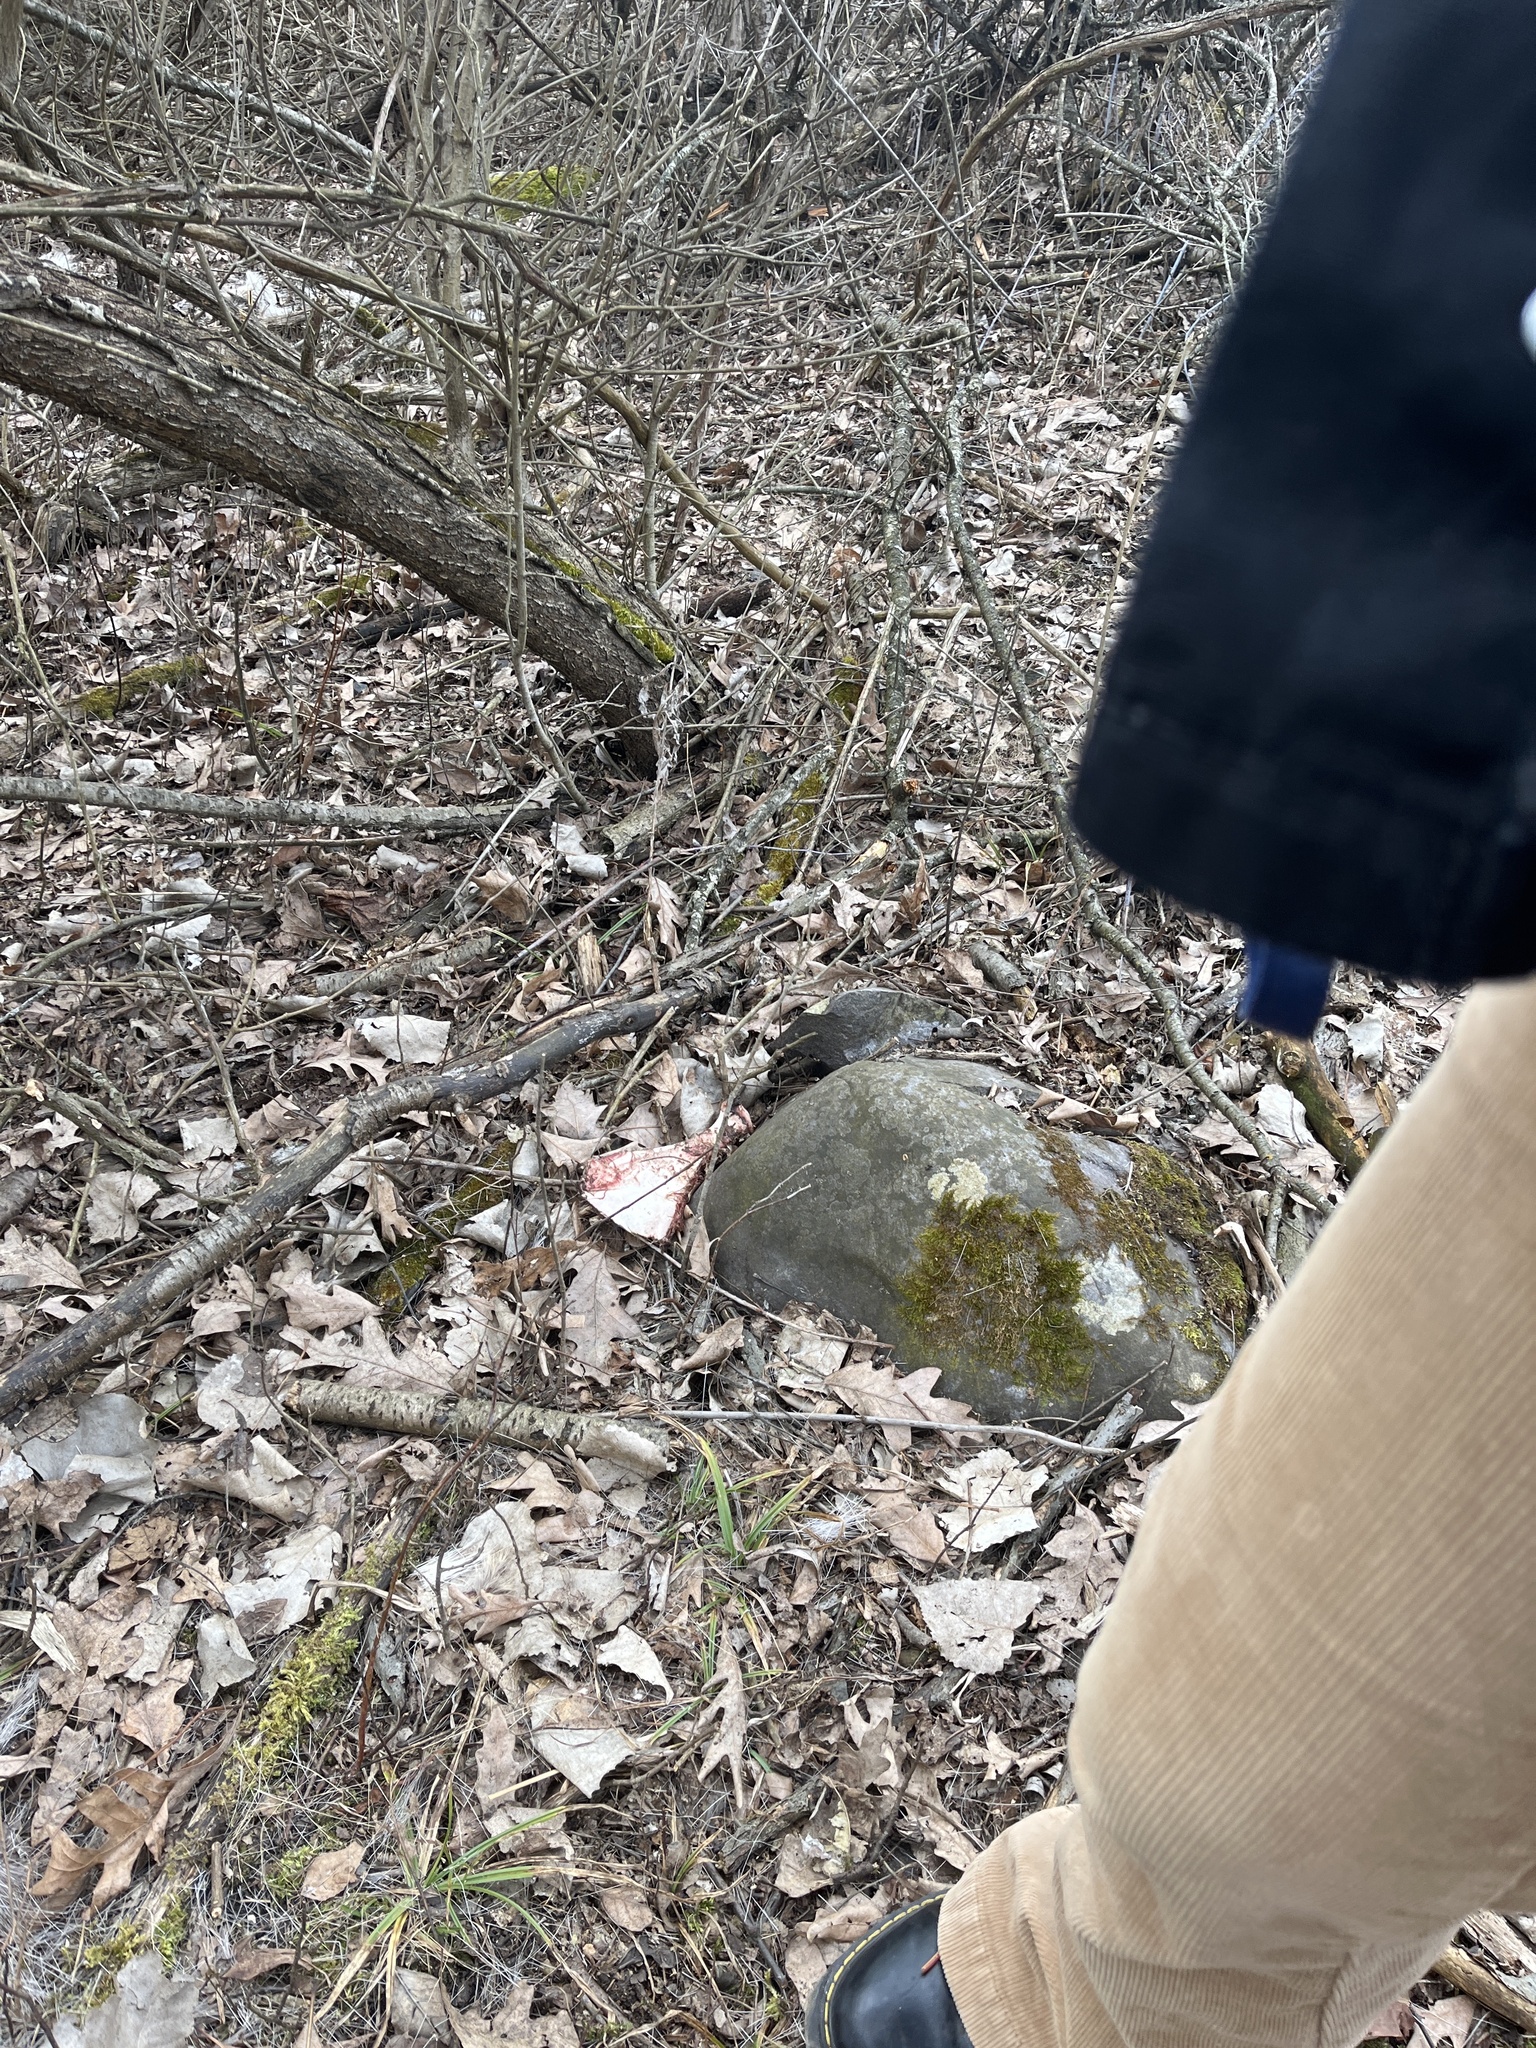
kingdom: Animalia
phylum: Chordata
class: Mammalia
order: Artiodactyla
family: Cervidae
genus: Odocoileus
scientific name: Odocoileus virginianus
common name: White-tailed deer
